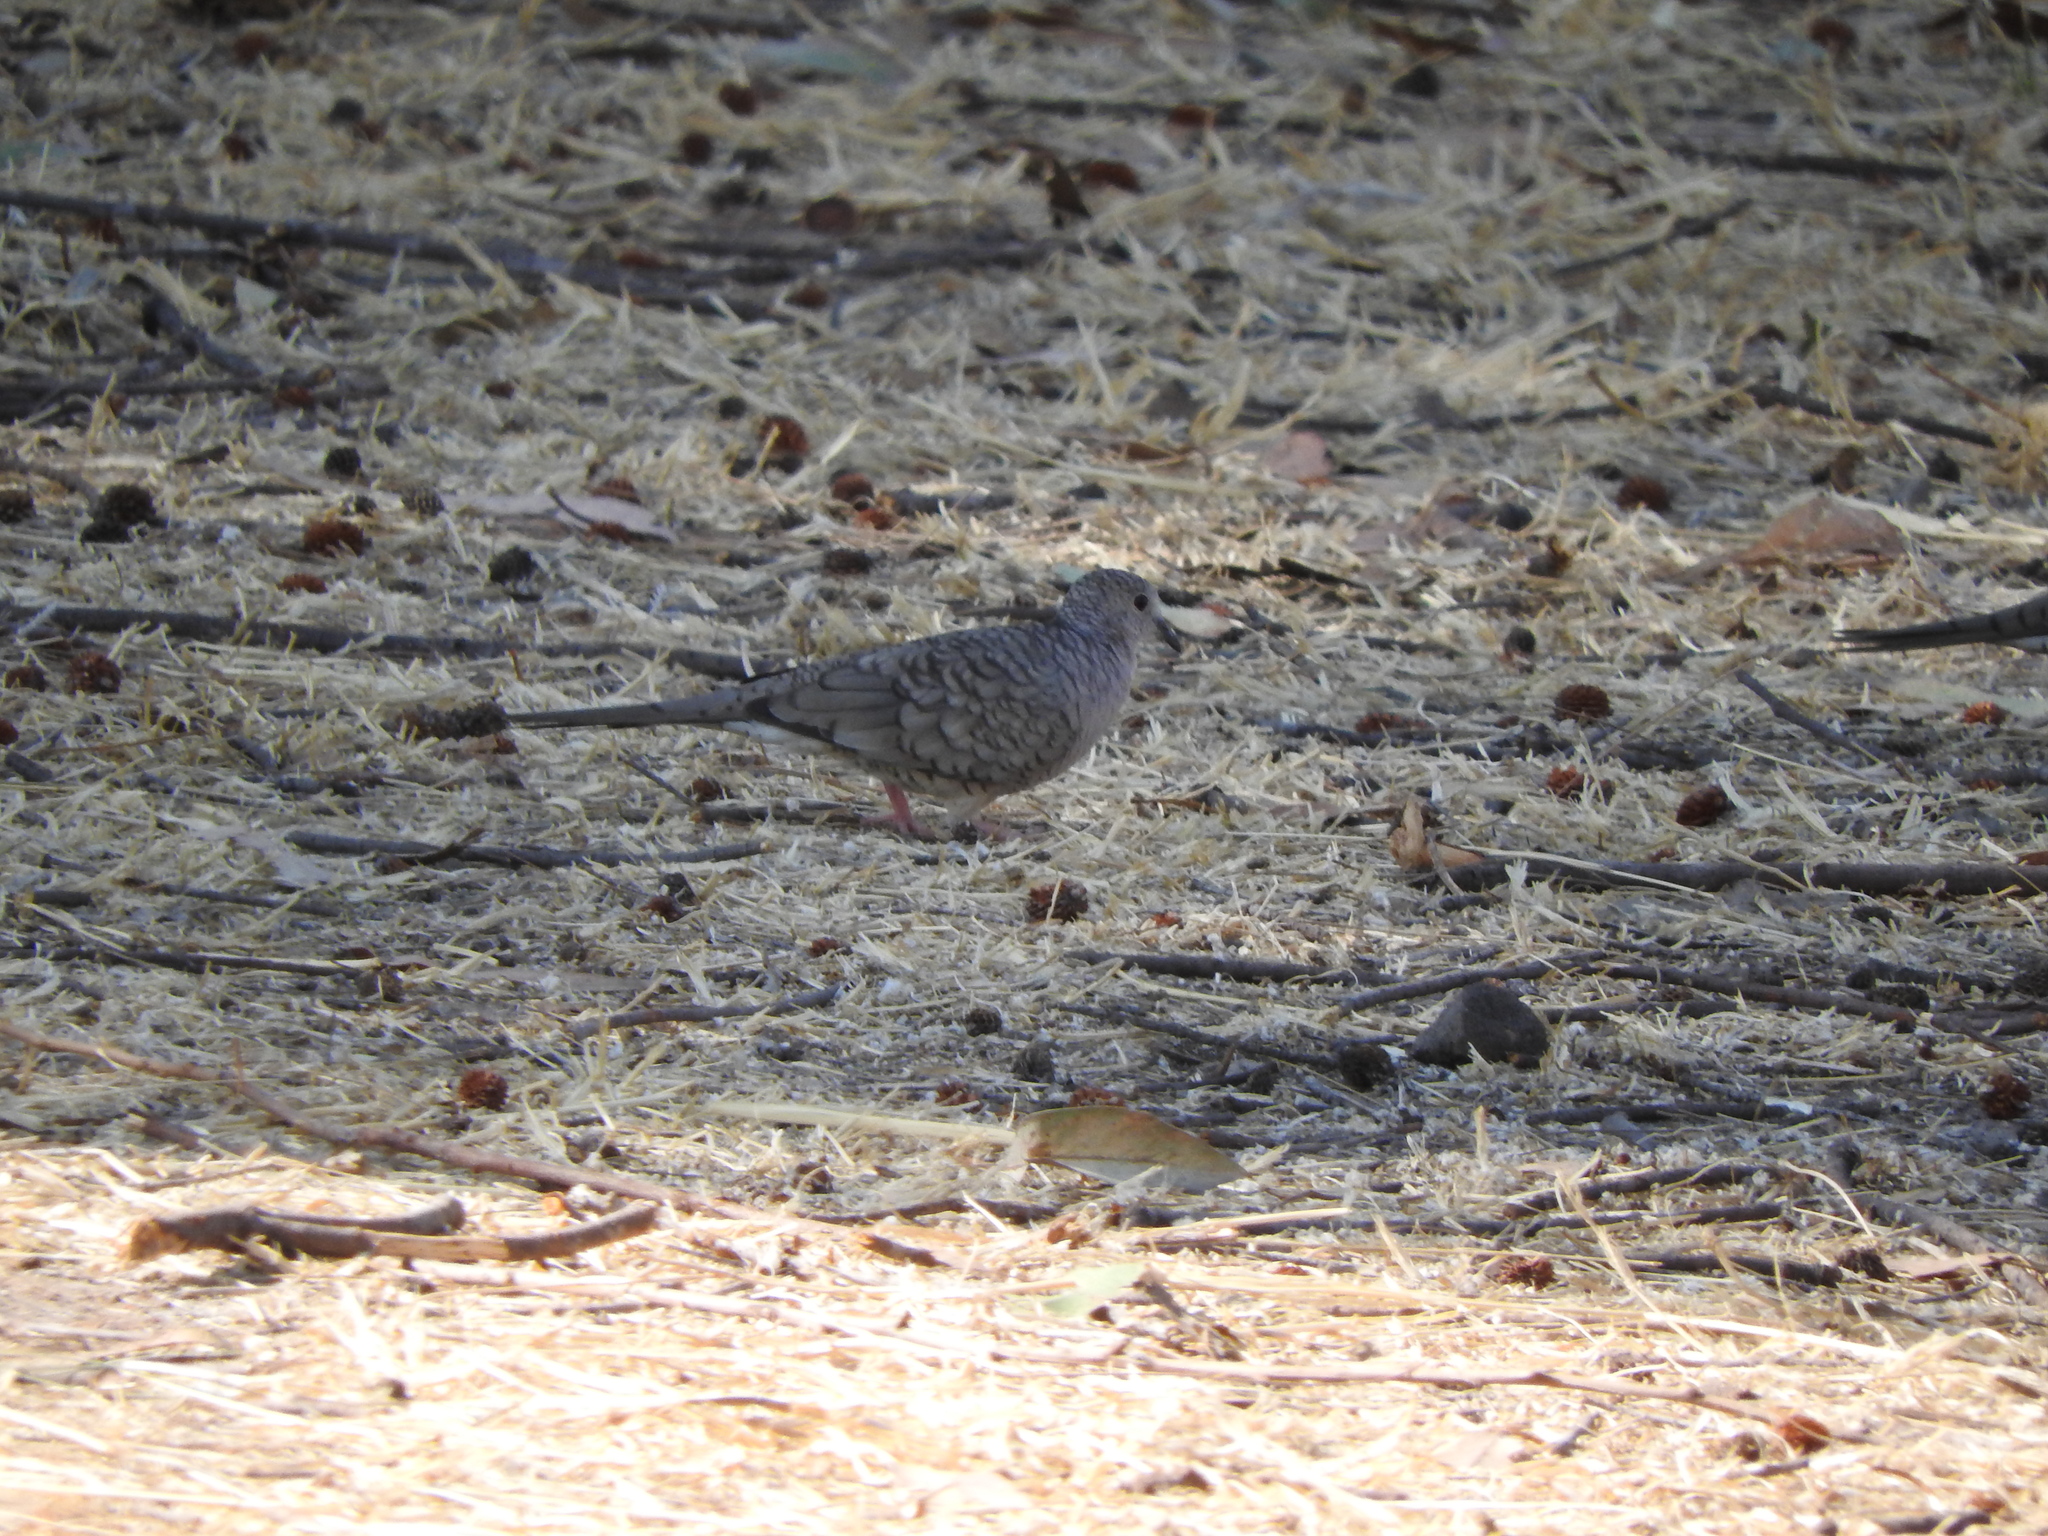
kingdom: Animalia
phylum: Chordata
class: Aves
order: Columbiformes
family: Columbidae
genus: Columbina
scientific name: Columbina inca
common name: Inca dove
